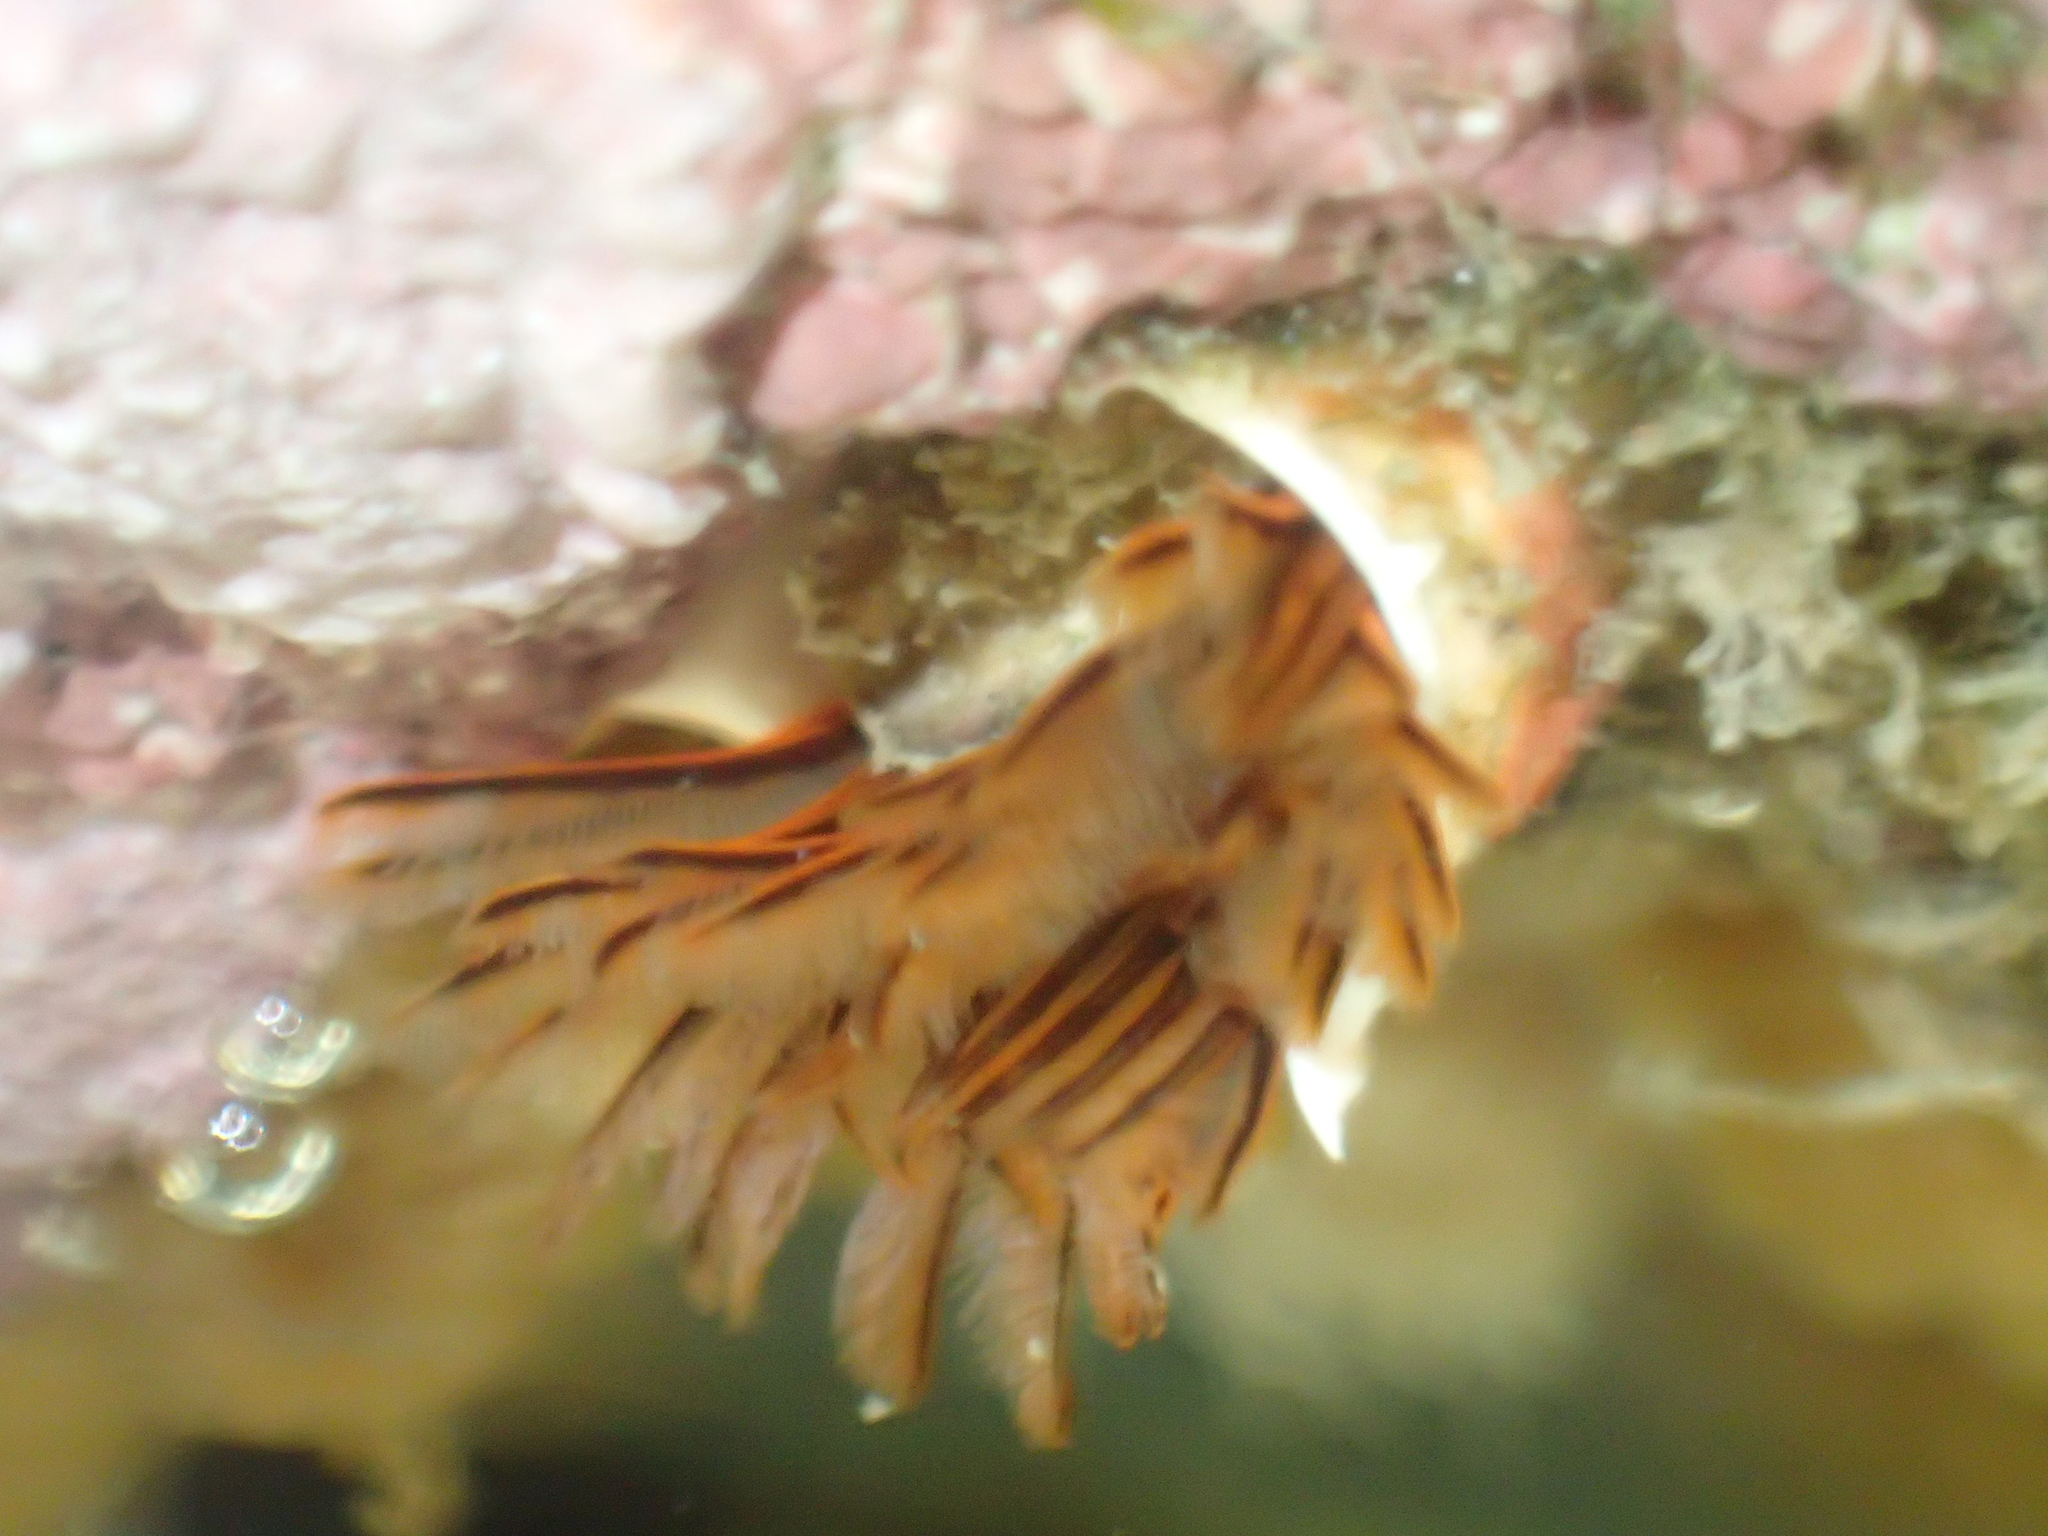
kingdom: Animalia
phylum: Annelida
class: Polychaeta
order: Sabellida
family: Serpulidae
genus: Galeolaria
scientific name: Galeolaria hystrix
